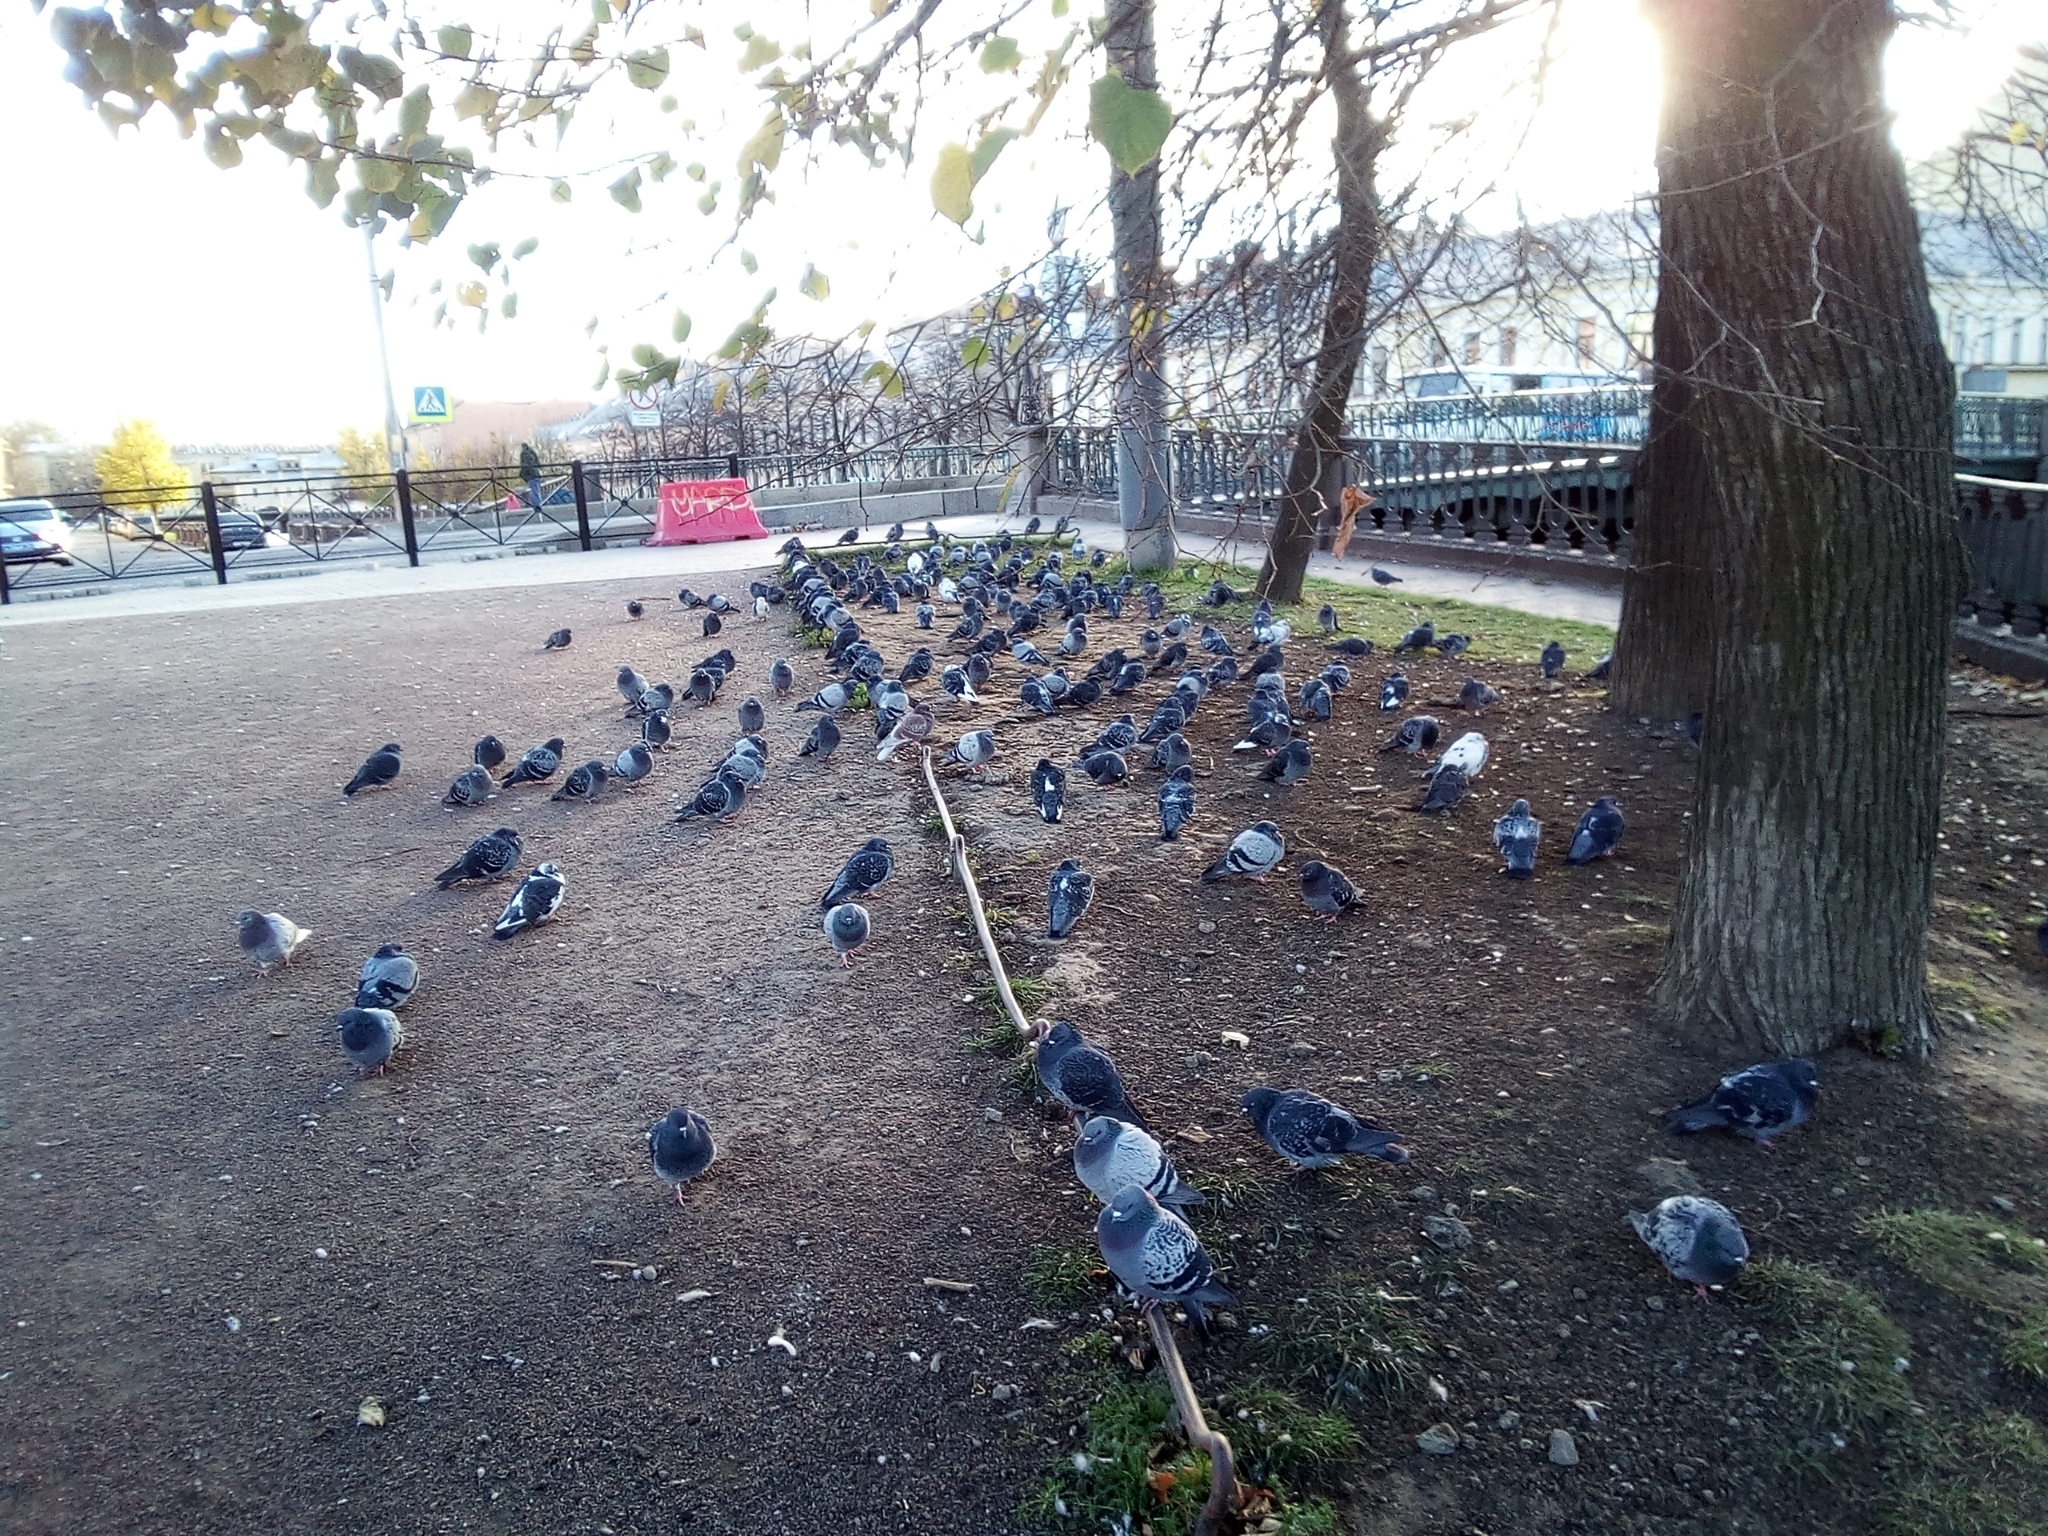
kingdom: Animalia
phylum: Chordata
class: Aves
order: Columbiformes
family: Columbidae
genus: Columba
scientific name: Columba livia
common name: Rock pigeon
